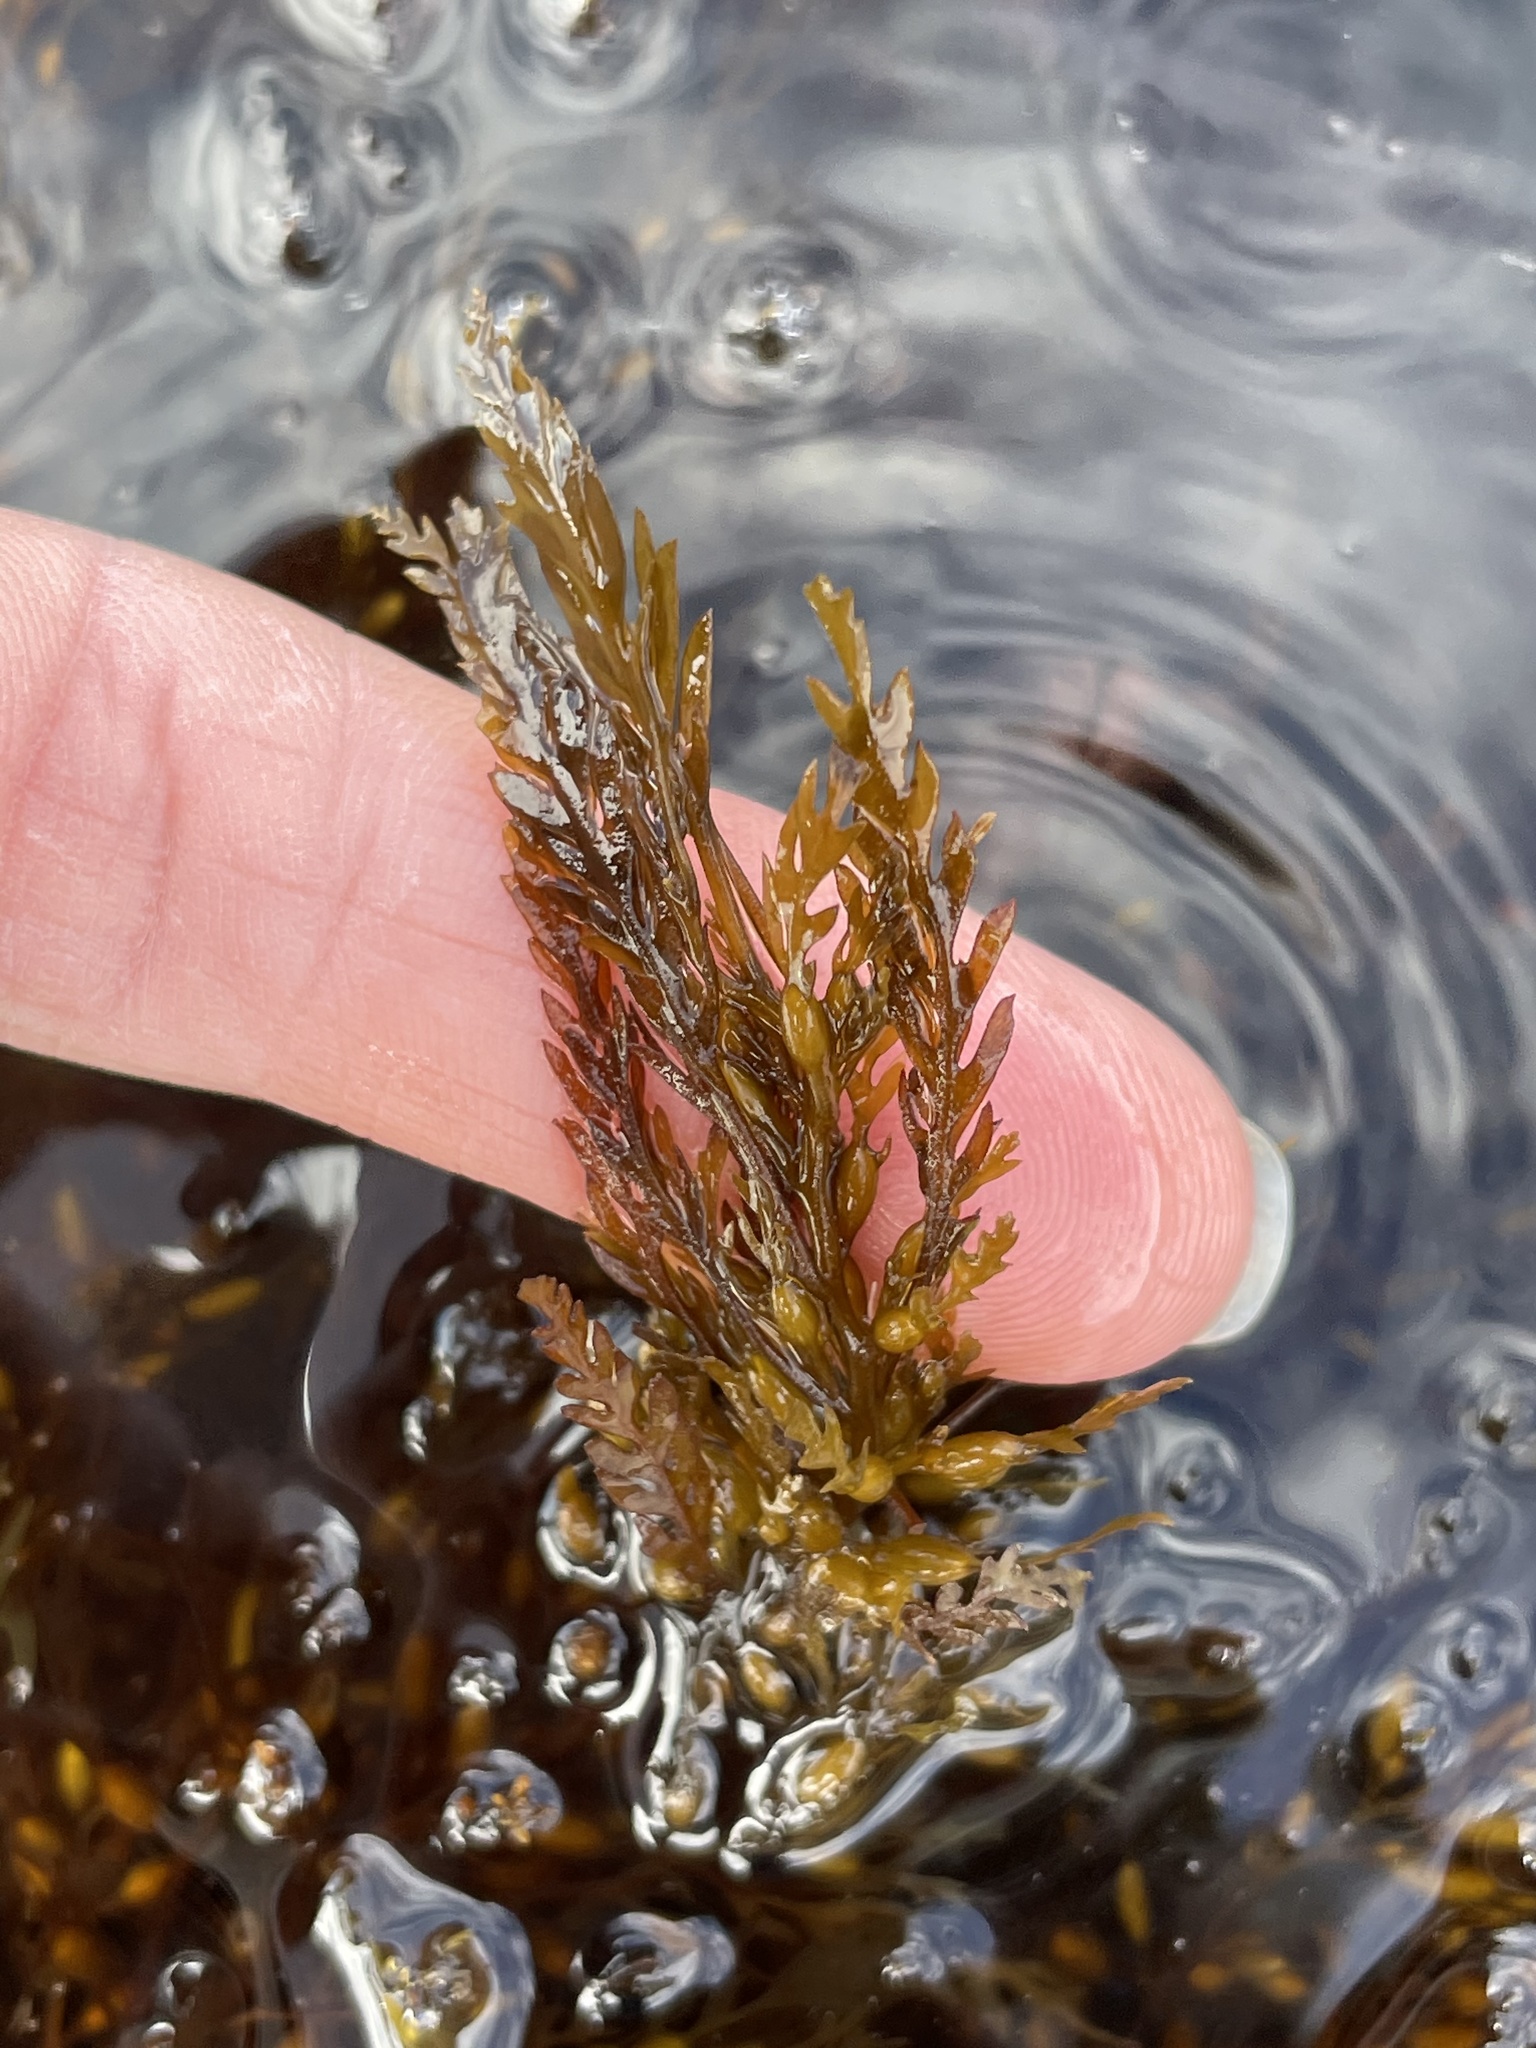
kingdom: Chromista
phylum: Ochrophyta
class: Phaeophyceae
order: Fucales
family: Sargassaceae
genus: Sargassum
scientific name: Sargassum horneri
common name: Devil weed
